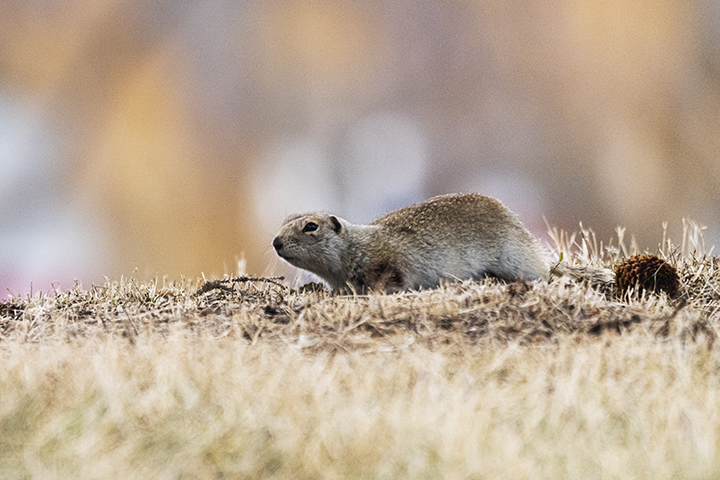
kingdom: Animalia
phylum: Chordata
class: Mammalia
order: Rodentia
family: Sciuridae
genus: Urocitellus
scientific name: Urocitellus richardsonii
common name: Richardson's ground squirrel
